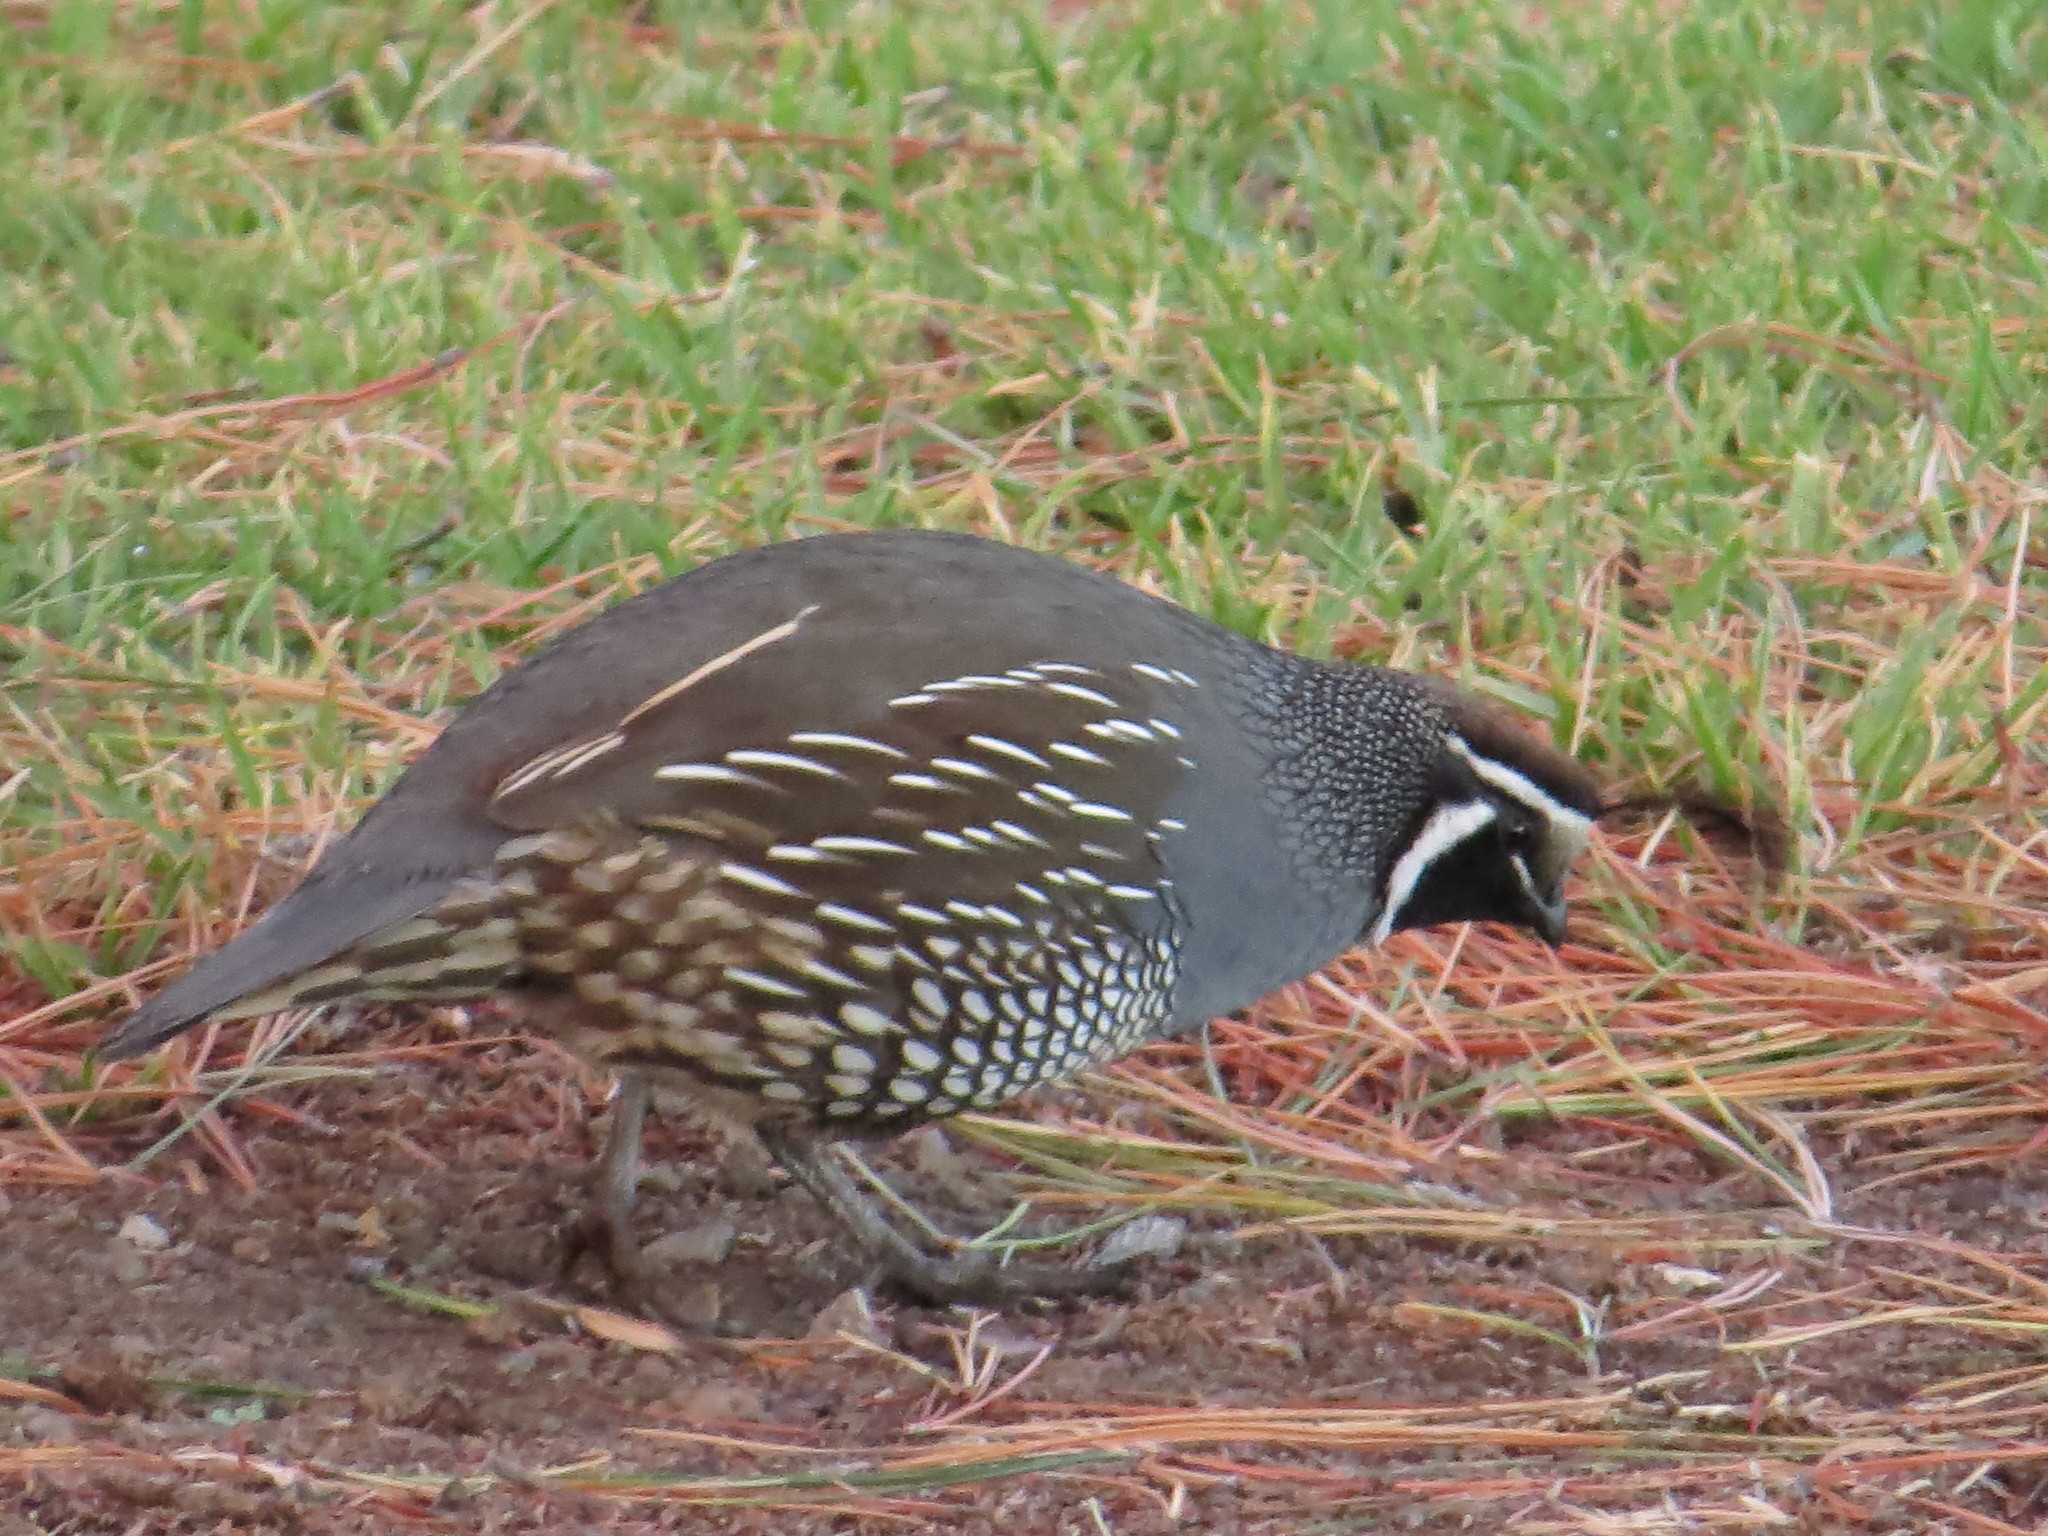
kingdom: Animalia
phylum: Chordata
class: Aves
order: Galliformes
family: Odontophoridae
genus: Callipepla
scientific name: Callipepla californica
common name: California quail
